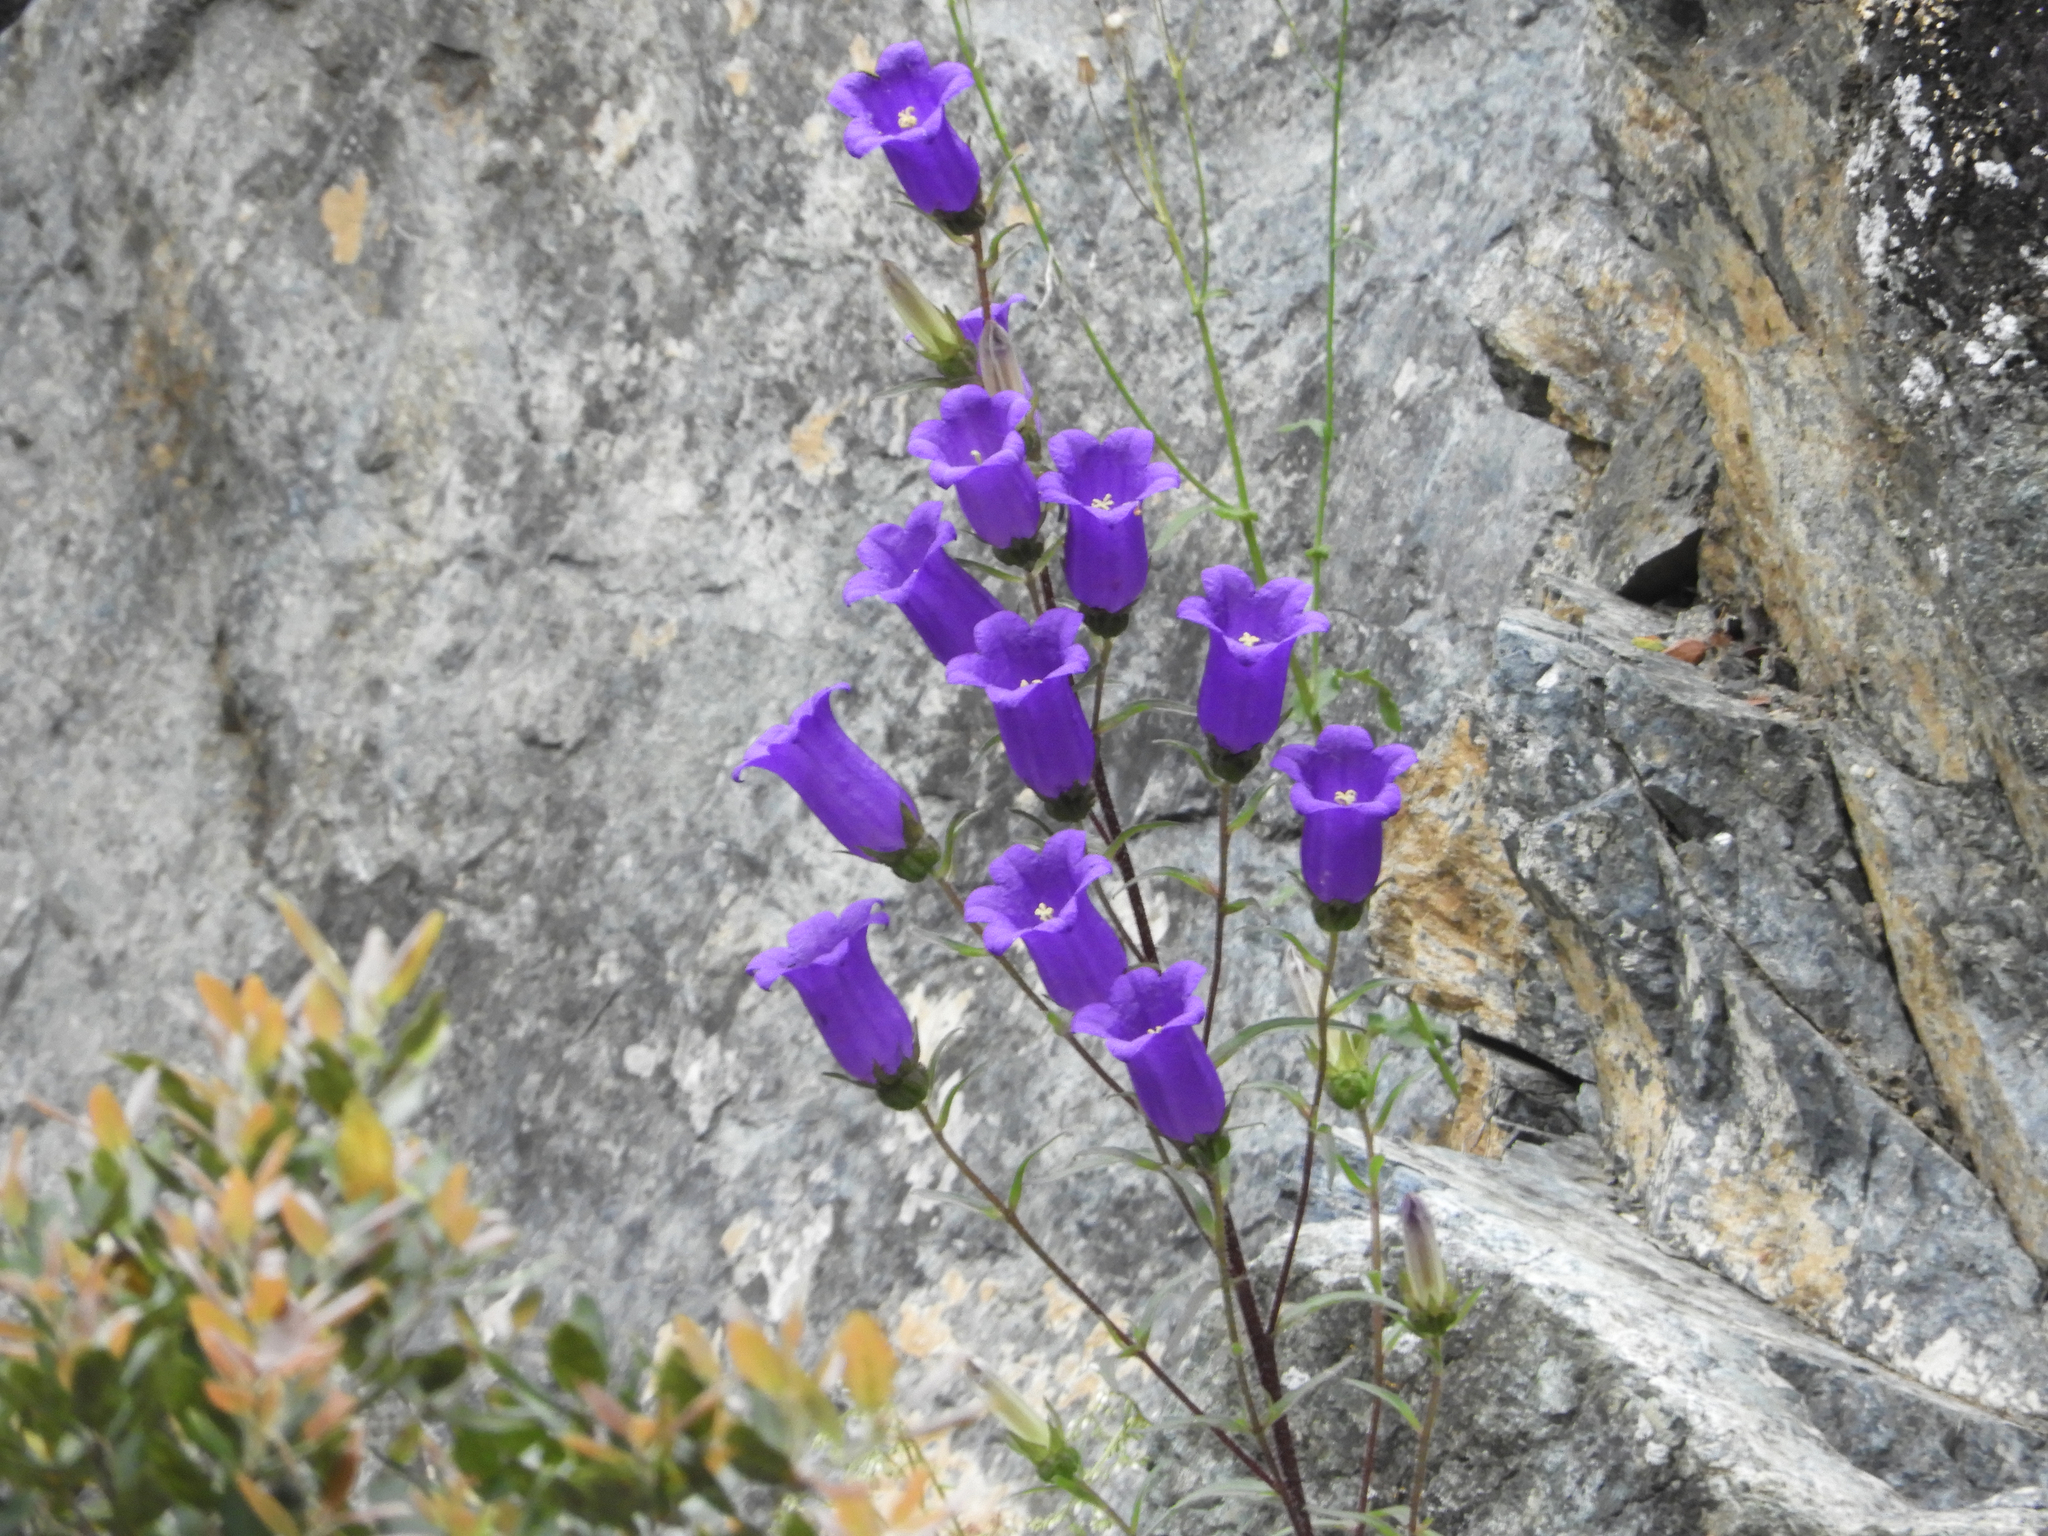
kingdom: Plantae
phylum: Tracheophyta
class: Magnoliopsida
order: Asterales
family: Campanulaceae
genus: Campanula
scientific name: Campanula medium
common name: Canterbury bells
